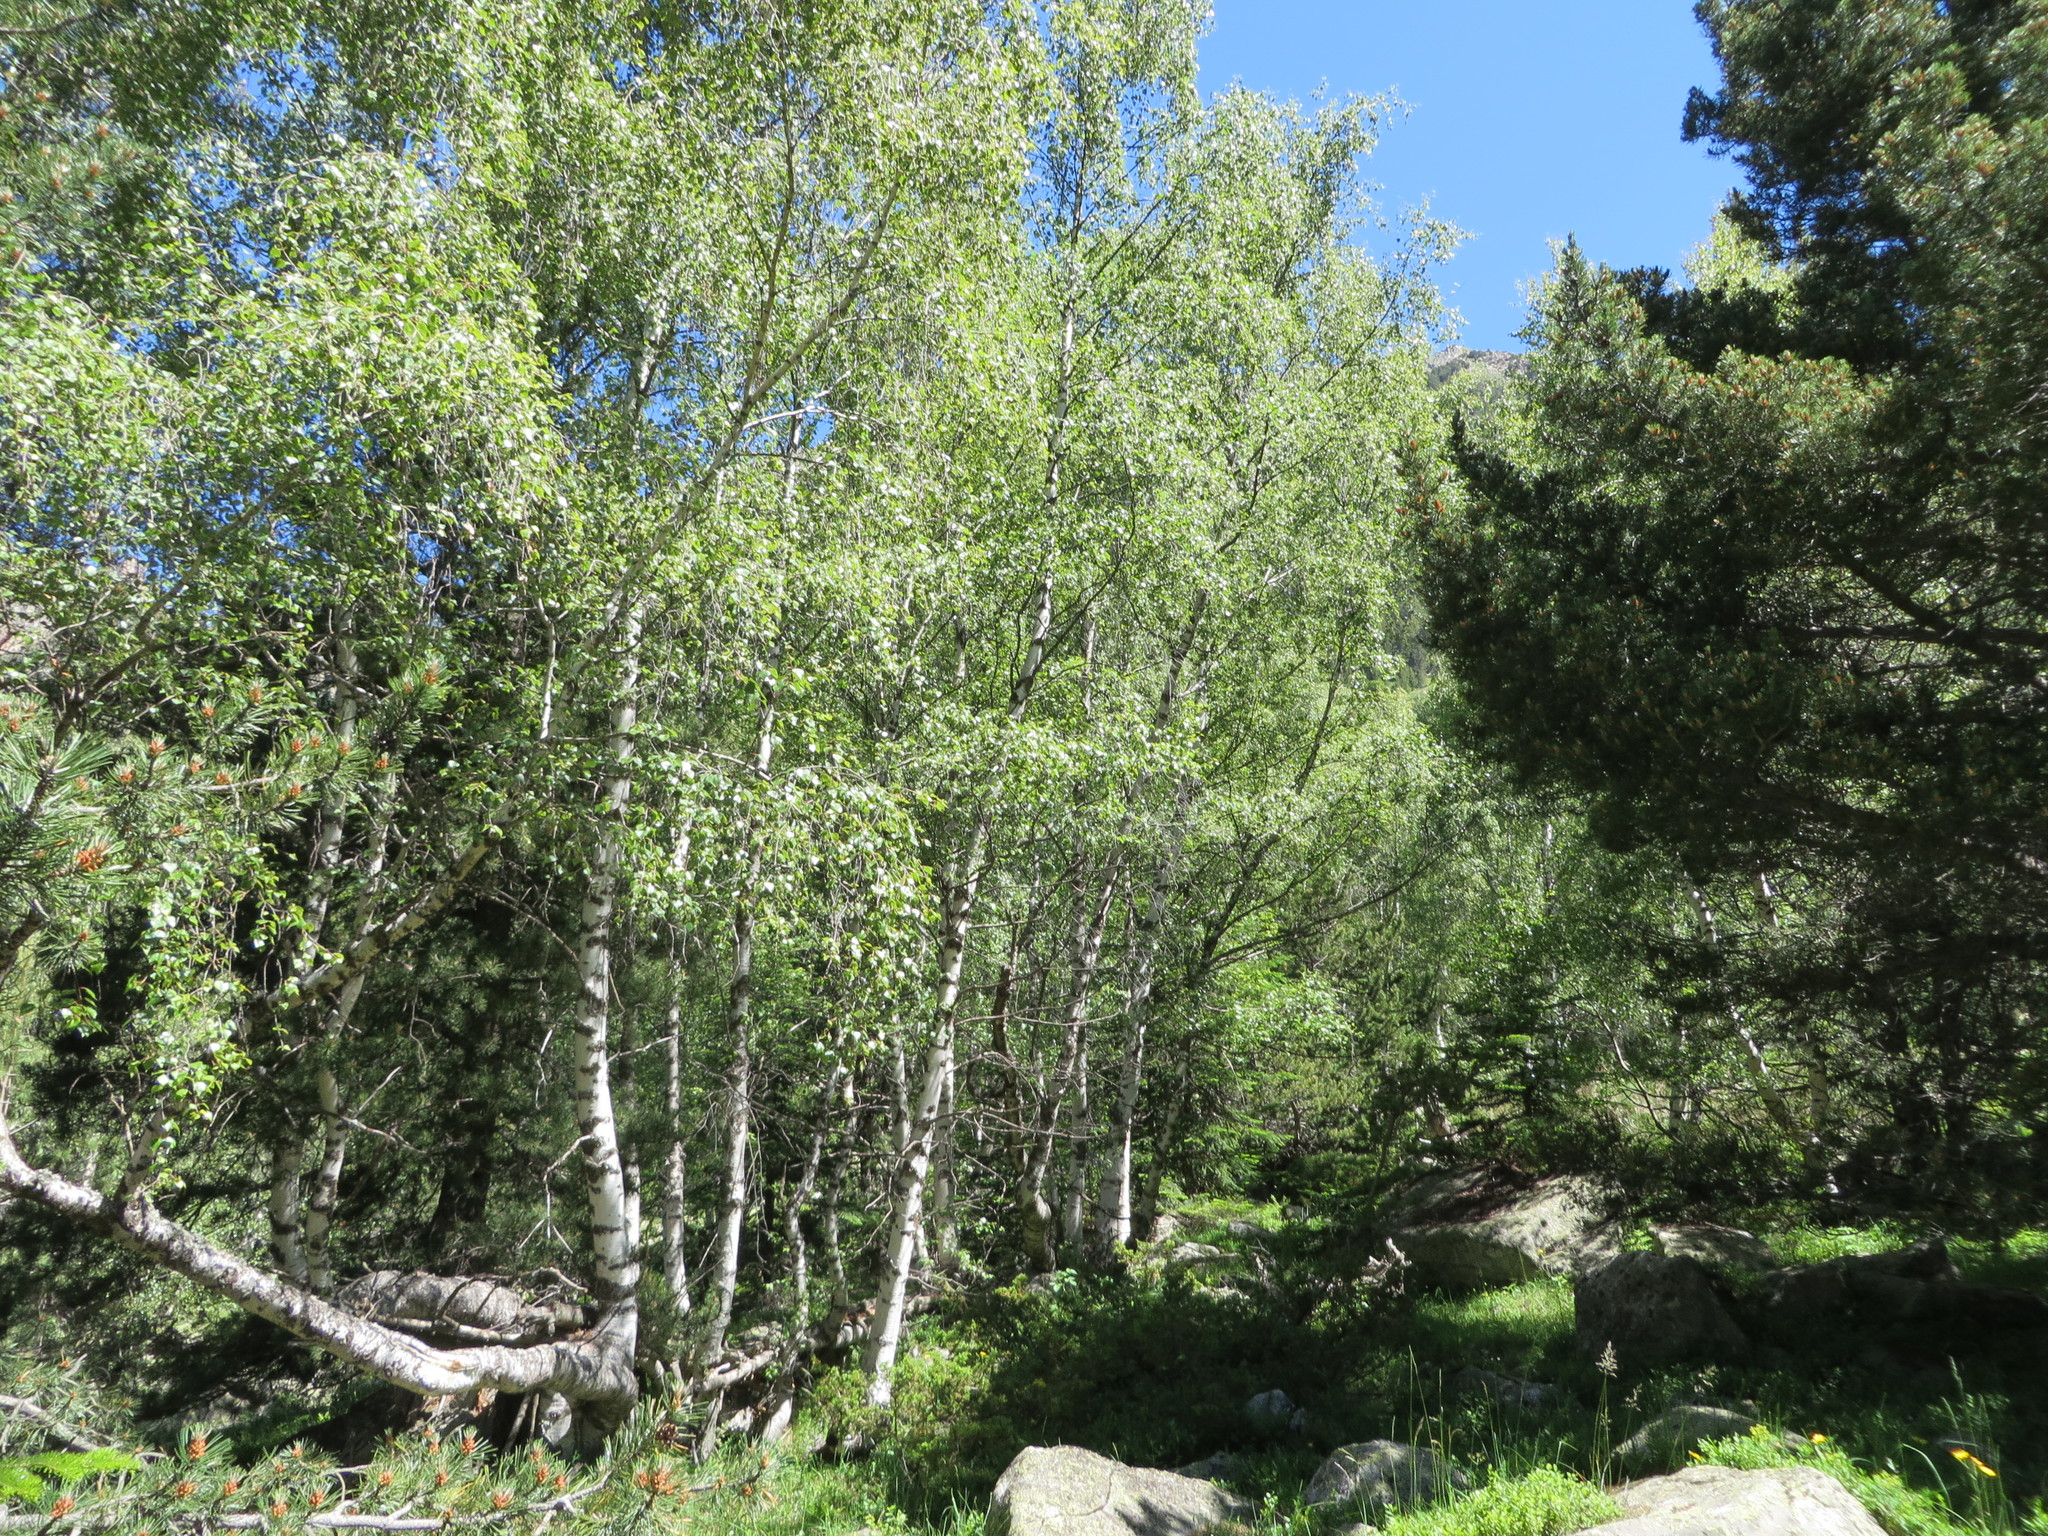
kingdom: Plantae
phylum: Tracheophyta
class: Magnoliopsida
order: Fagales
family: Betulaceae
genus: Betula
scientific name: Betula pendula
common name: Silver birch
